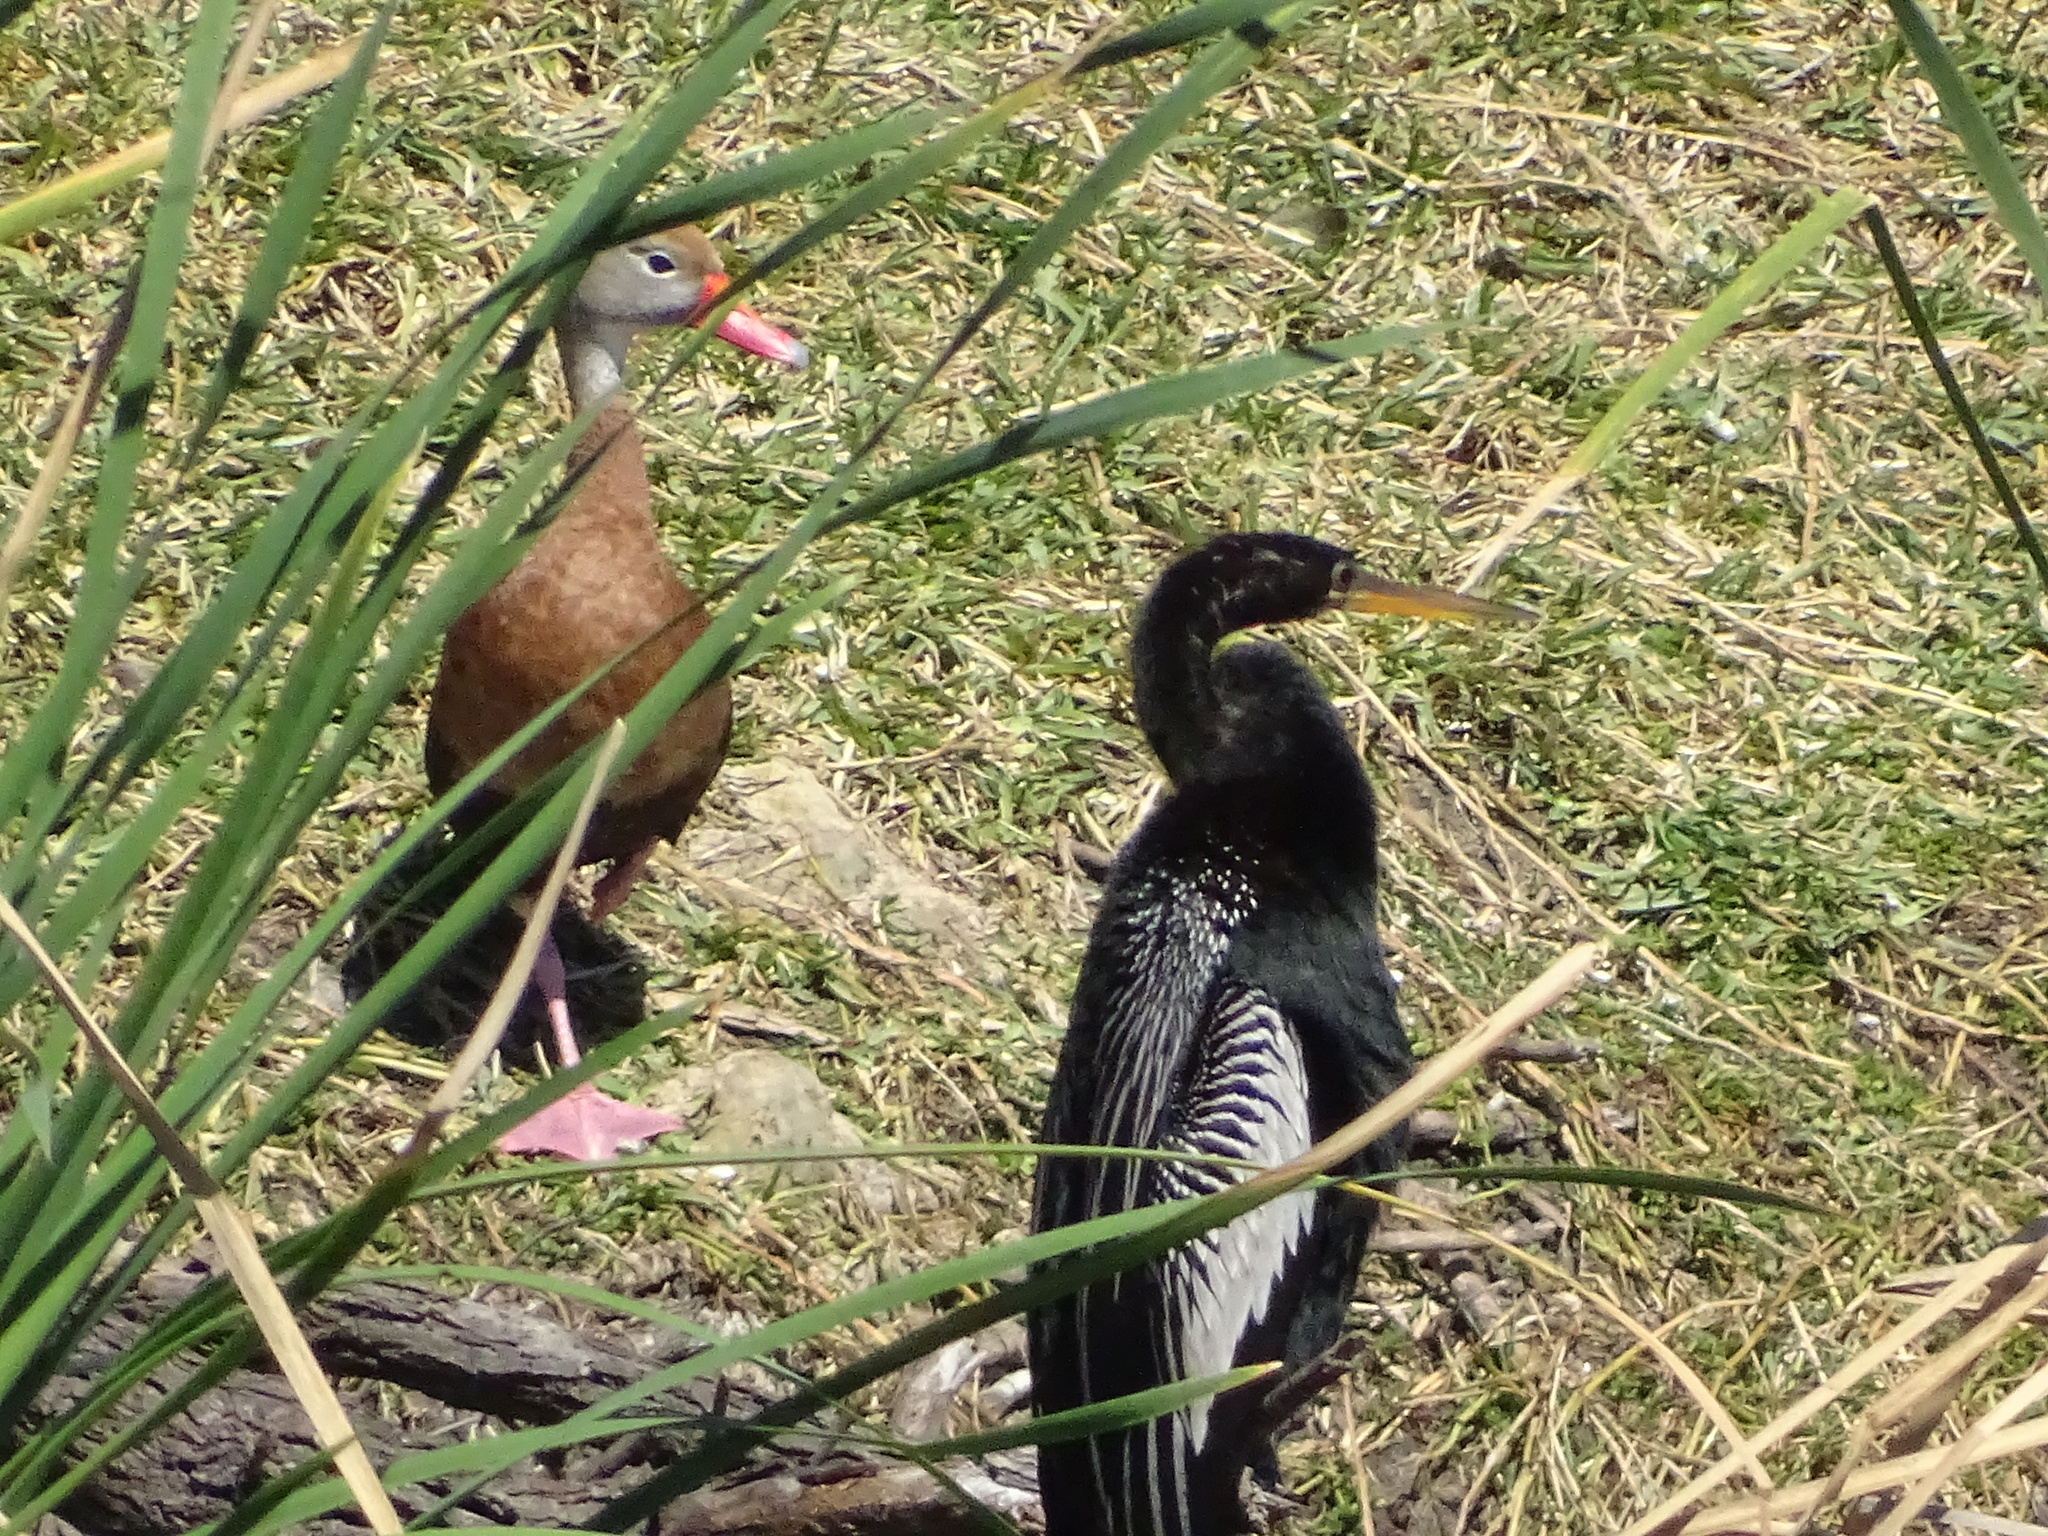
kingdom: Animalia
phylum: Chordata
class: Aves
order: Suliformes
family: Anhingidae
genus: Anhinga
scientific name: Anhinga anhinga
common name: Anhinga
